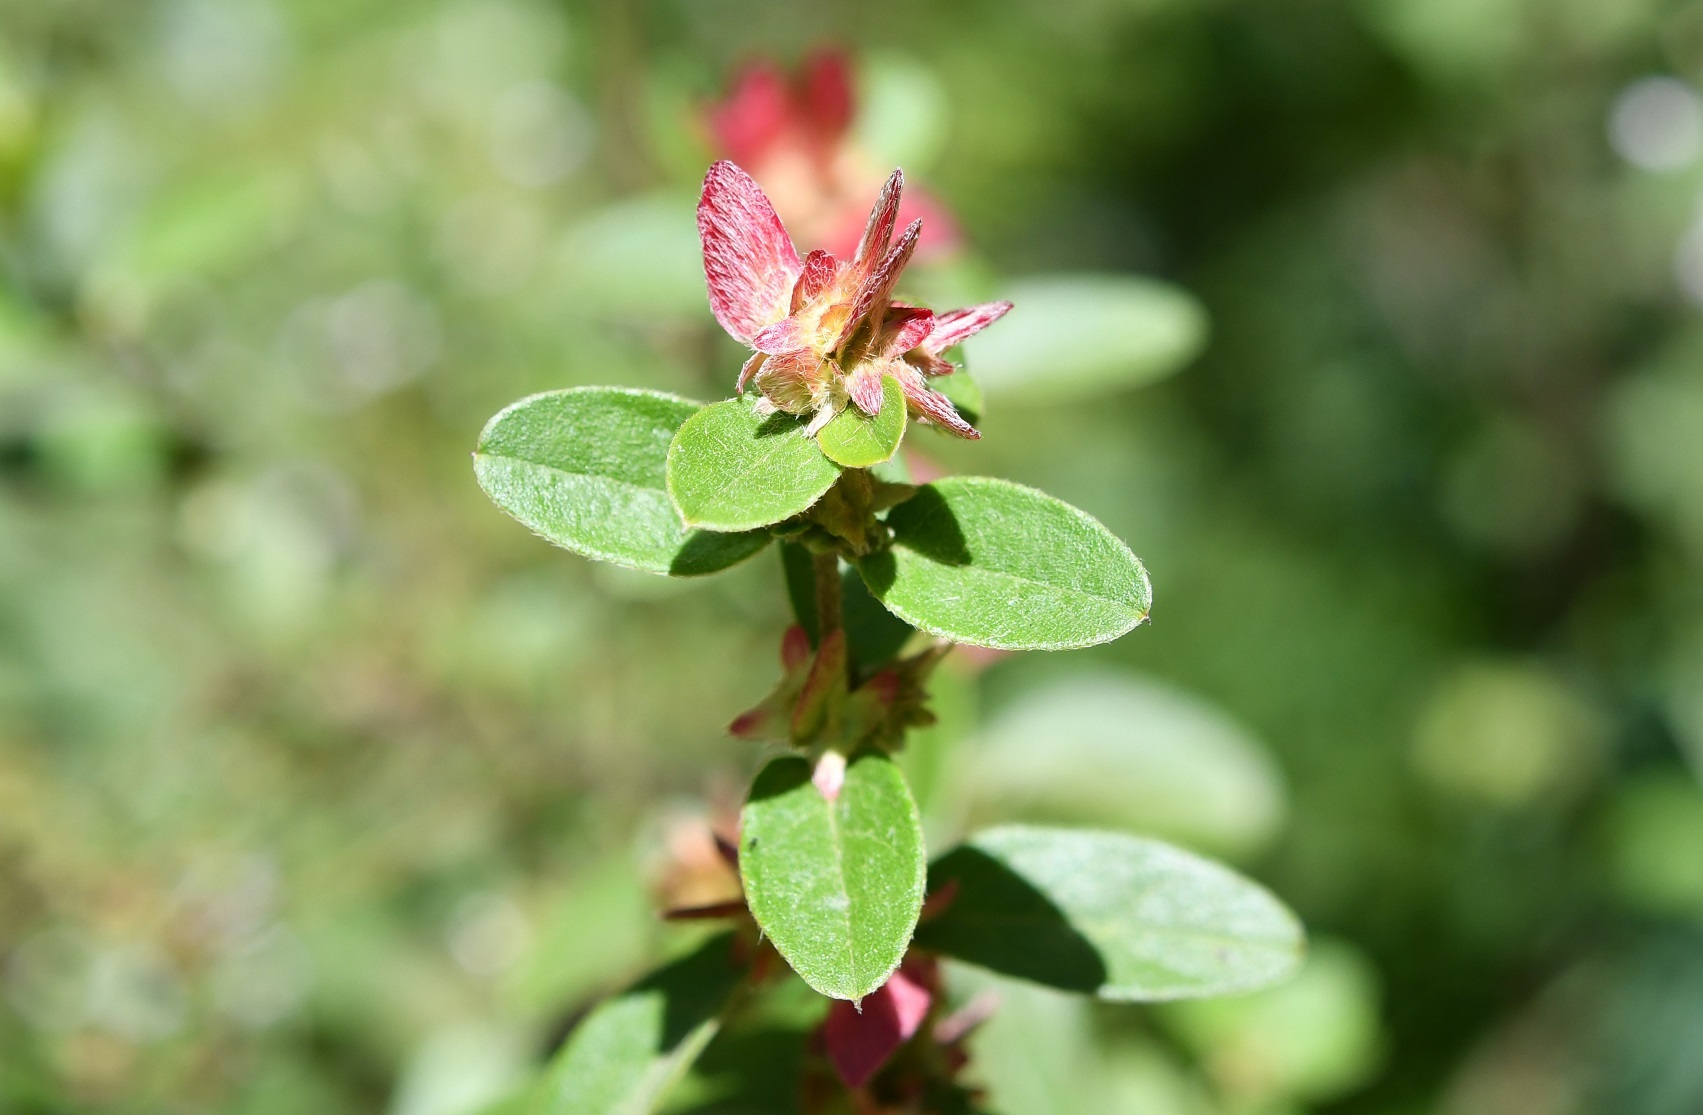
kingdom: Plantae
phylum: Tracheophyta
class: Magnoliopsida
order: Malpighiales
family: Malpighiaceae
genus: Gaudichaudia
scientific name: Gaudichaudia cynanchoides
